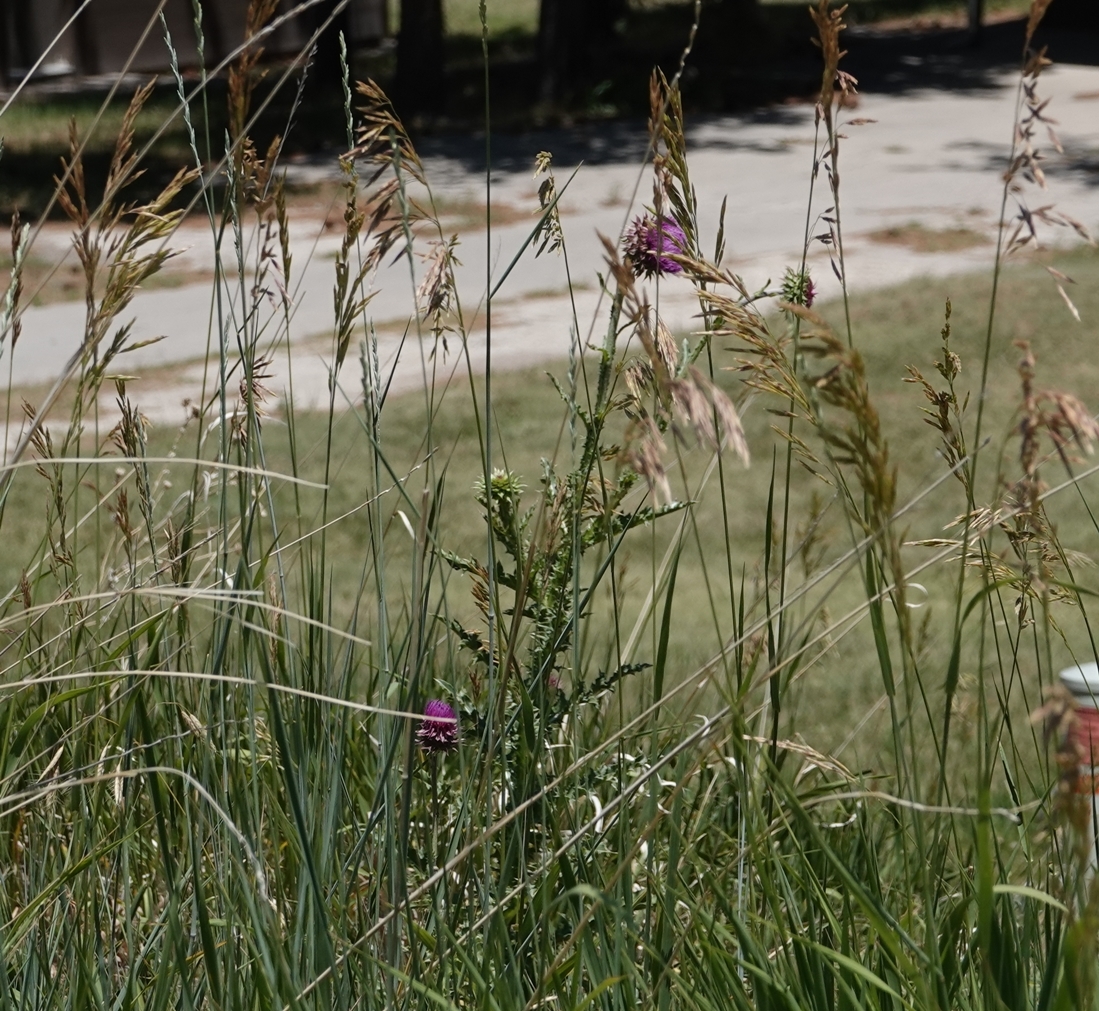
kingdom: Plantae
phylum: Tracheophyta
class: Magnoliopsida
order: Asterales
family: Asteraceae
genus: Carduus
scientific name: Carduus nutans
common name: Musk thistle
